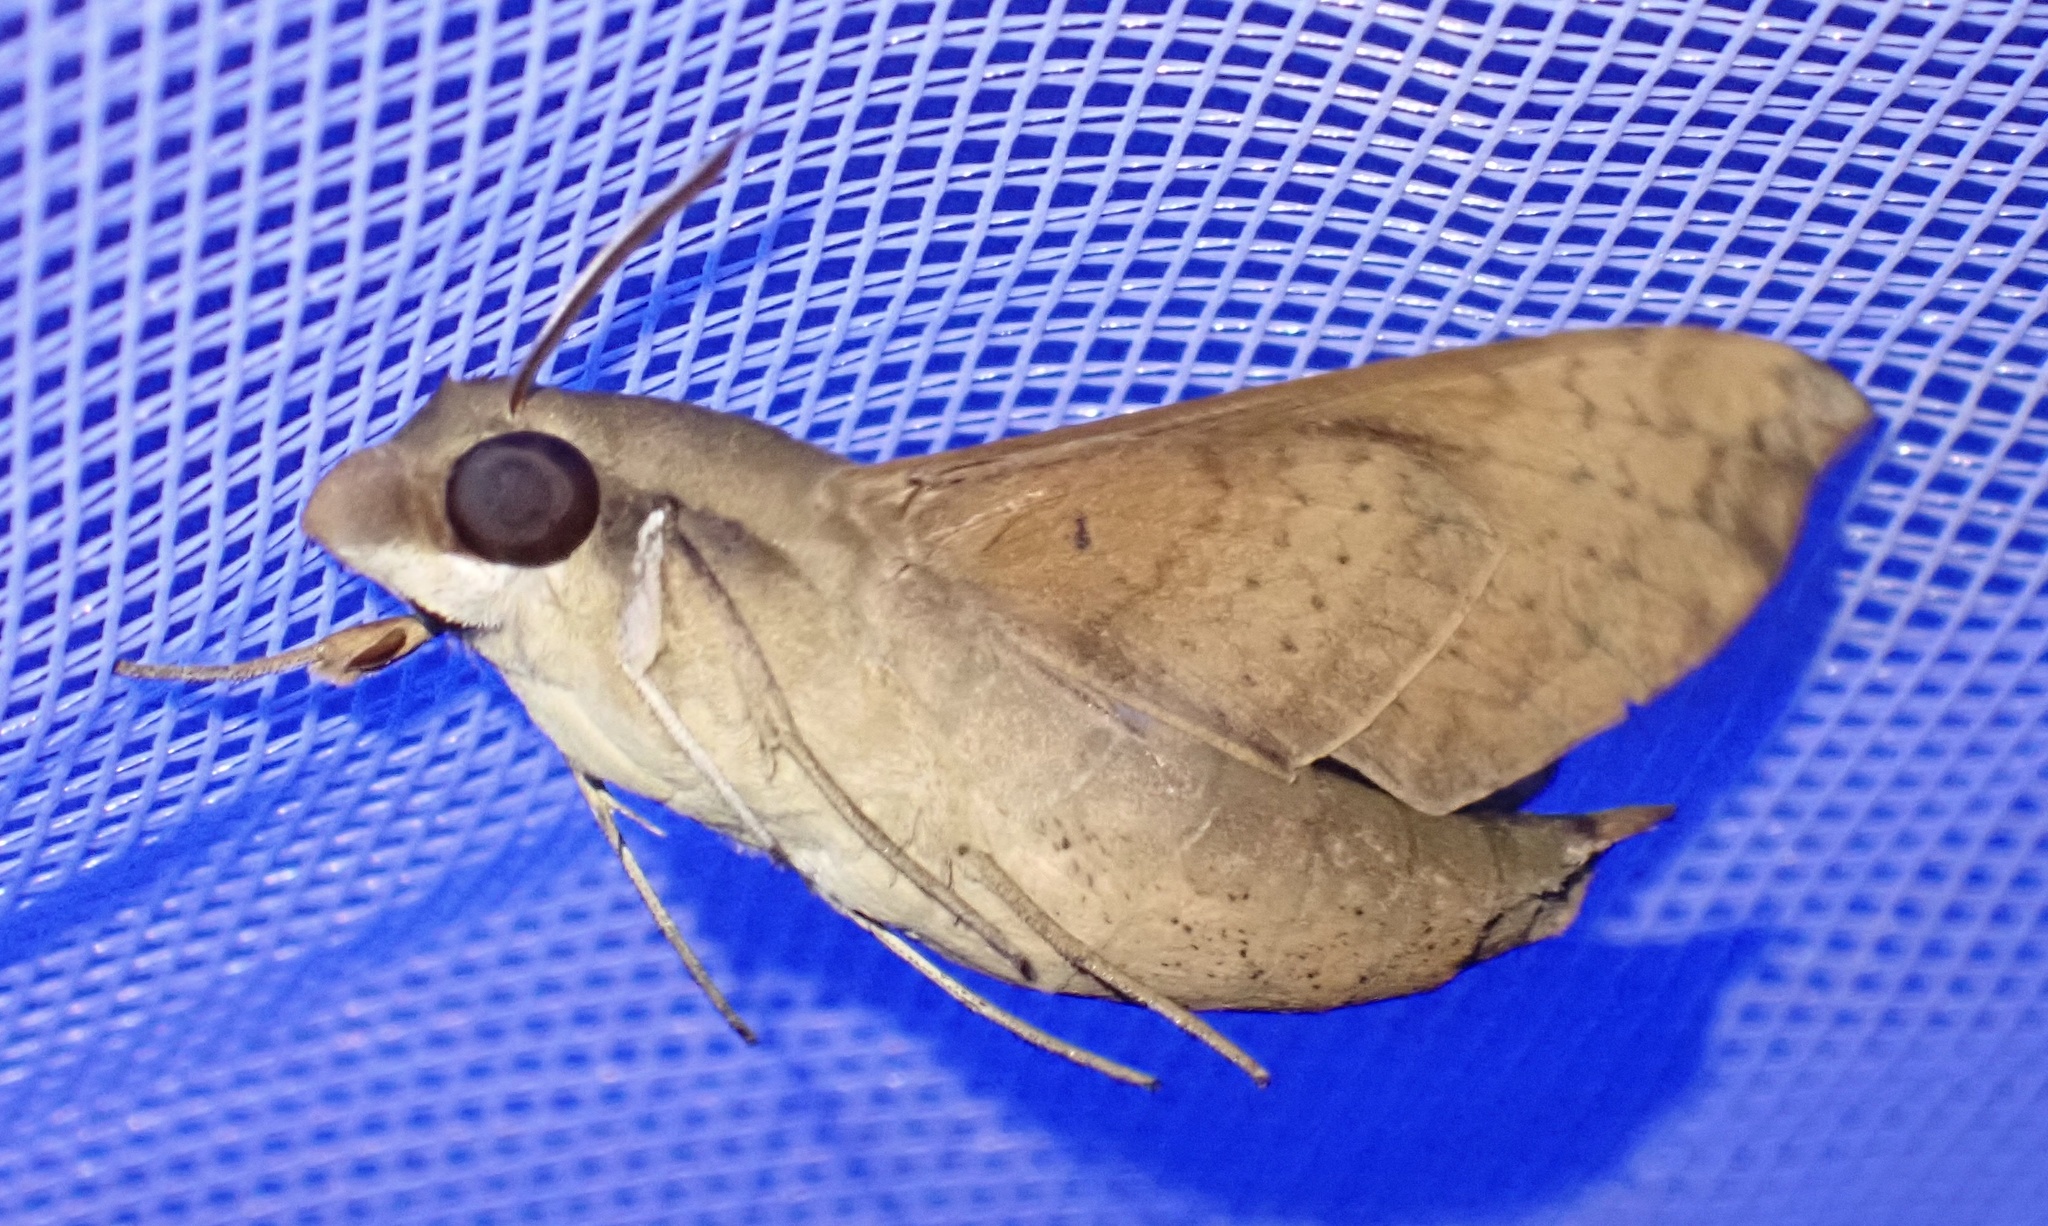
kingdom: Animalia
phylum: Arthropoda
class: Insecta
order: Lepidoptera
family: Sphingidae
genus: Temnora
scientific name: Temnora fumosa
